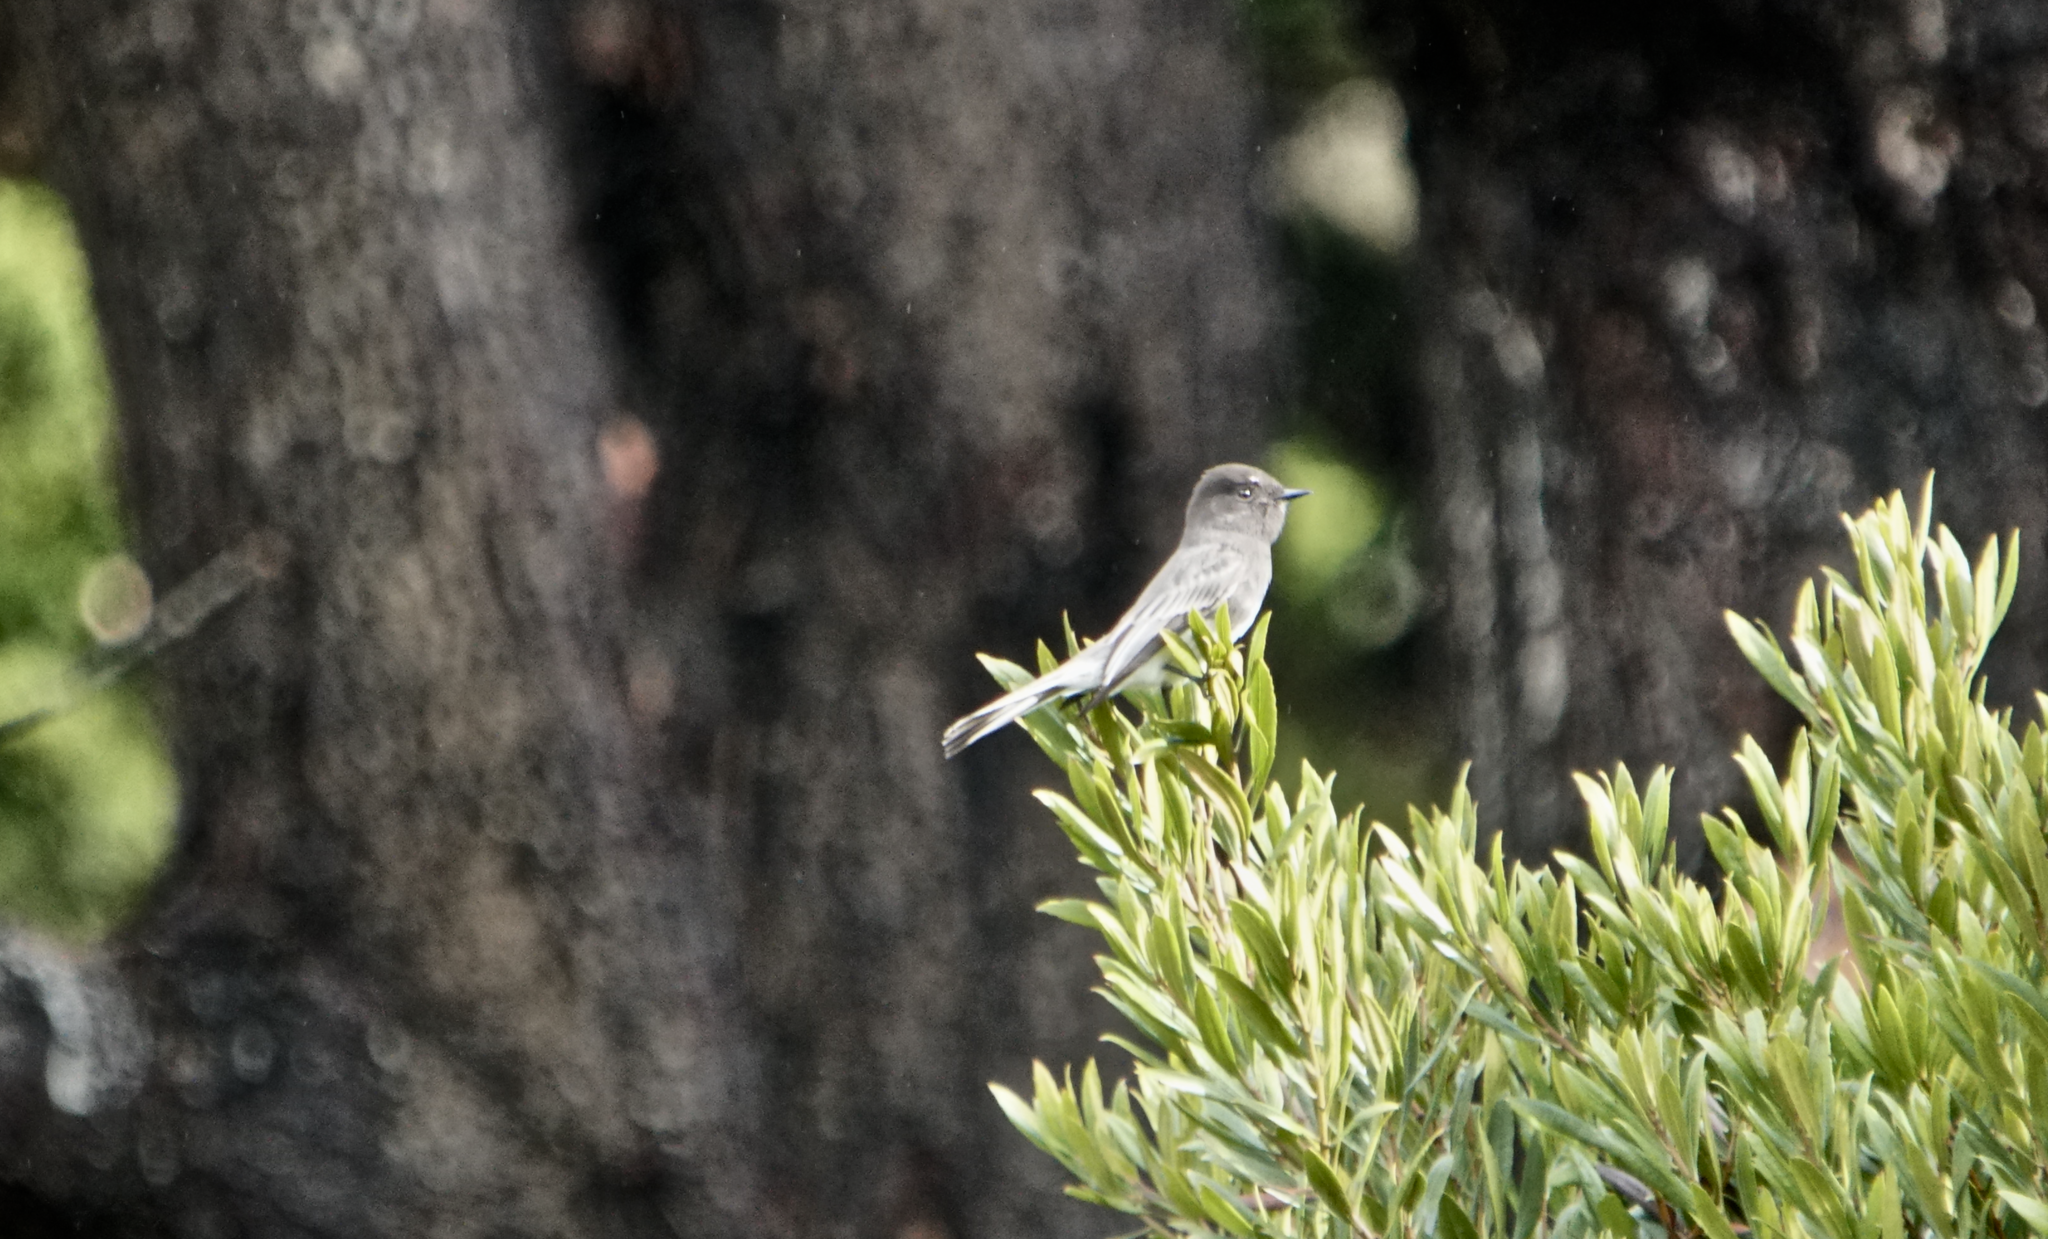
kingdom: Animalia
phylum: Chordata
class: Aves
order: Passeriformes
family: Tyrannidae
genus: Sayornis
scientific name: Sayornis nigricans
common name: Black phoebe
